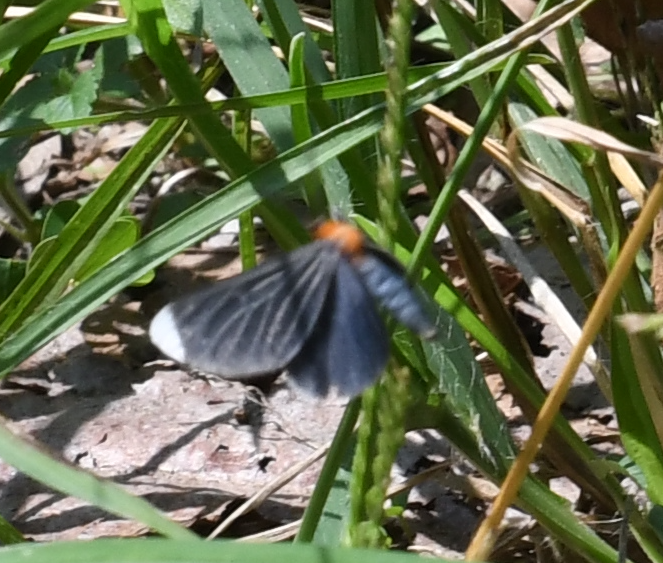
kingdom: Animalia
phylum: Arthropoda
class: Insecta
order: Lepidoptera
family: Geometridae
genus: Melanchroia
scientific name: Melanchroia chephise
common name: White-tipped black
